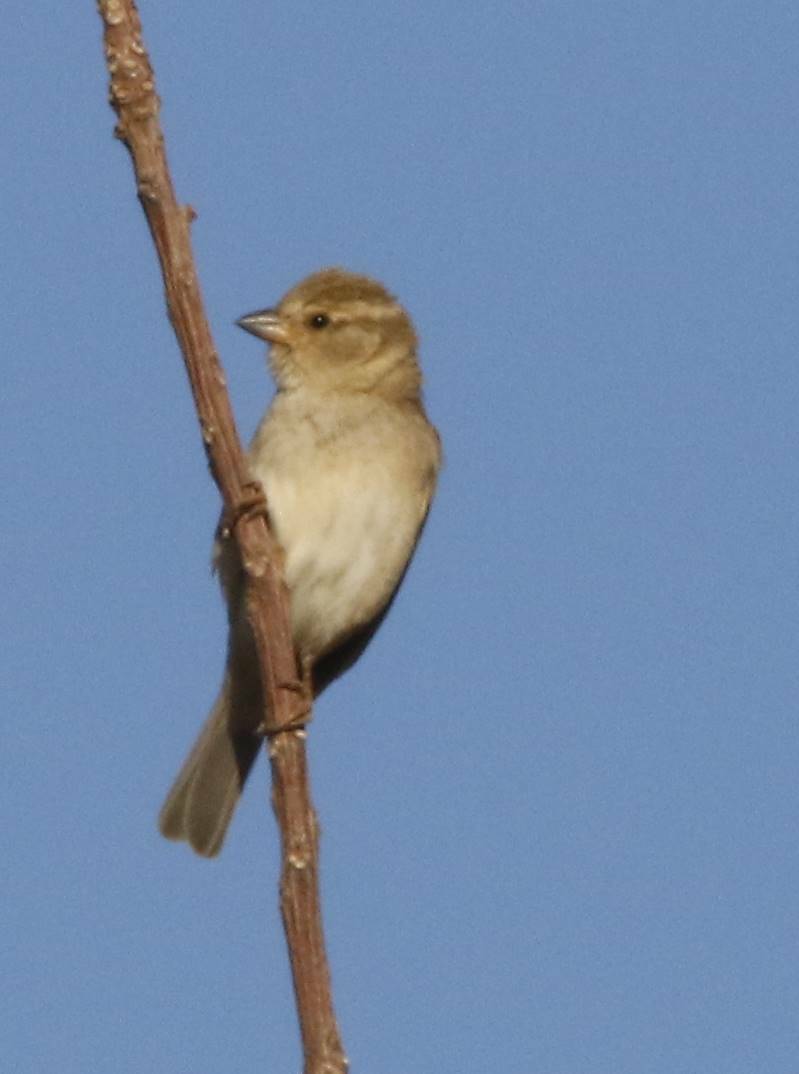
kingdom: Animalia
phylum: Chordata
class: Aves
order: Passeriformes
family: Passeridae
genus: Passer
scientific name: Passer domesticus
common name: House sparrow
